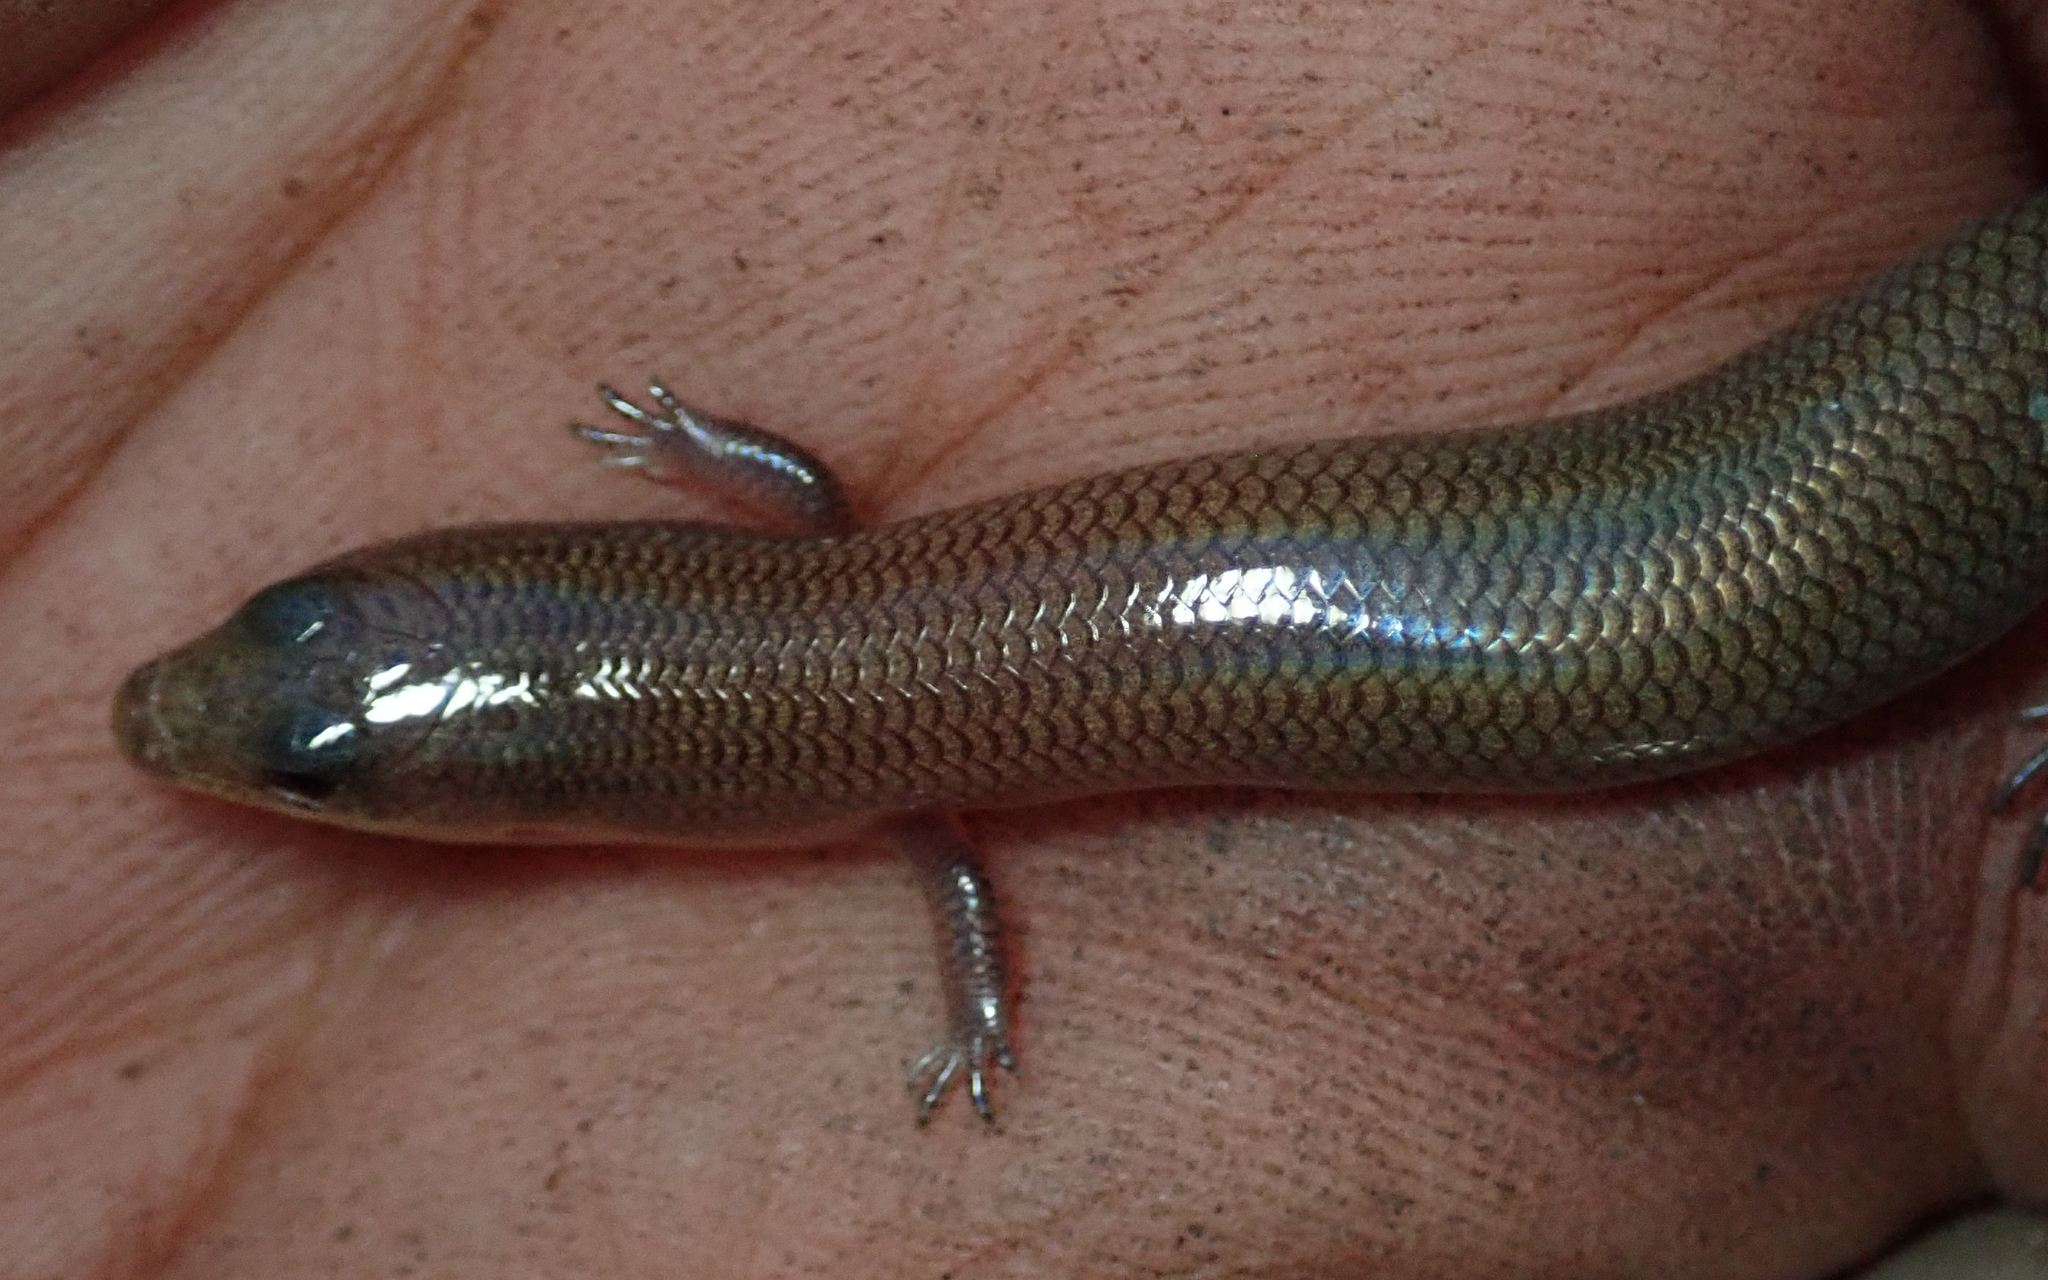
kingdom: Animalia
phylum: Chordata
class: Squamata
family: Scincidae
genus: Mochlus
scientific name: Mochlus sundevallii
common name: Peters' eyelid skink
